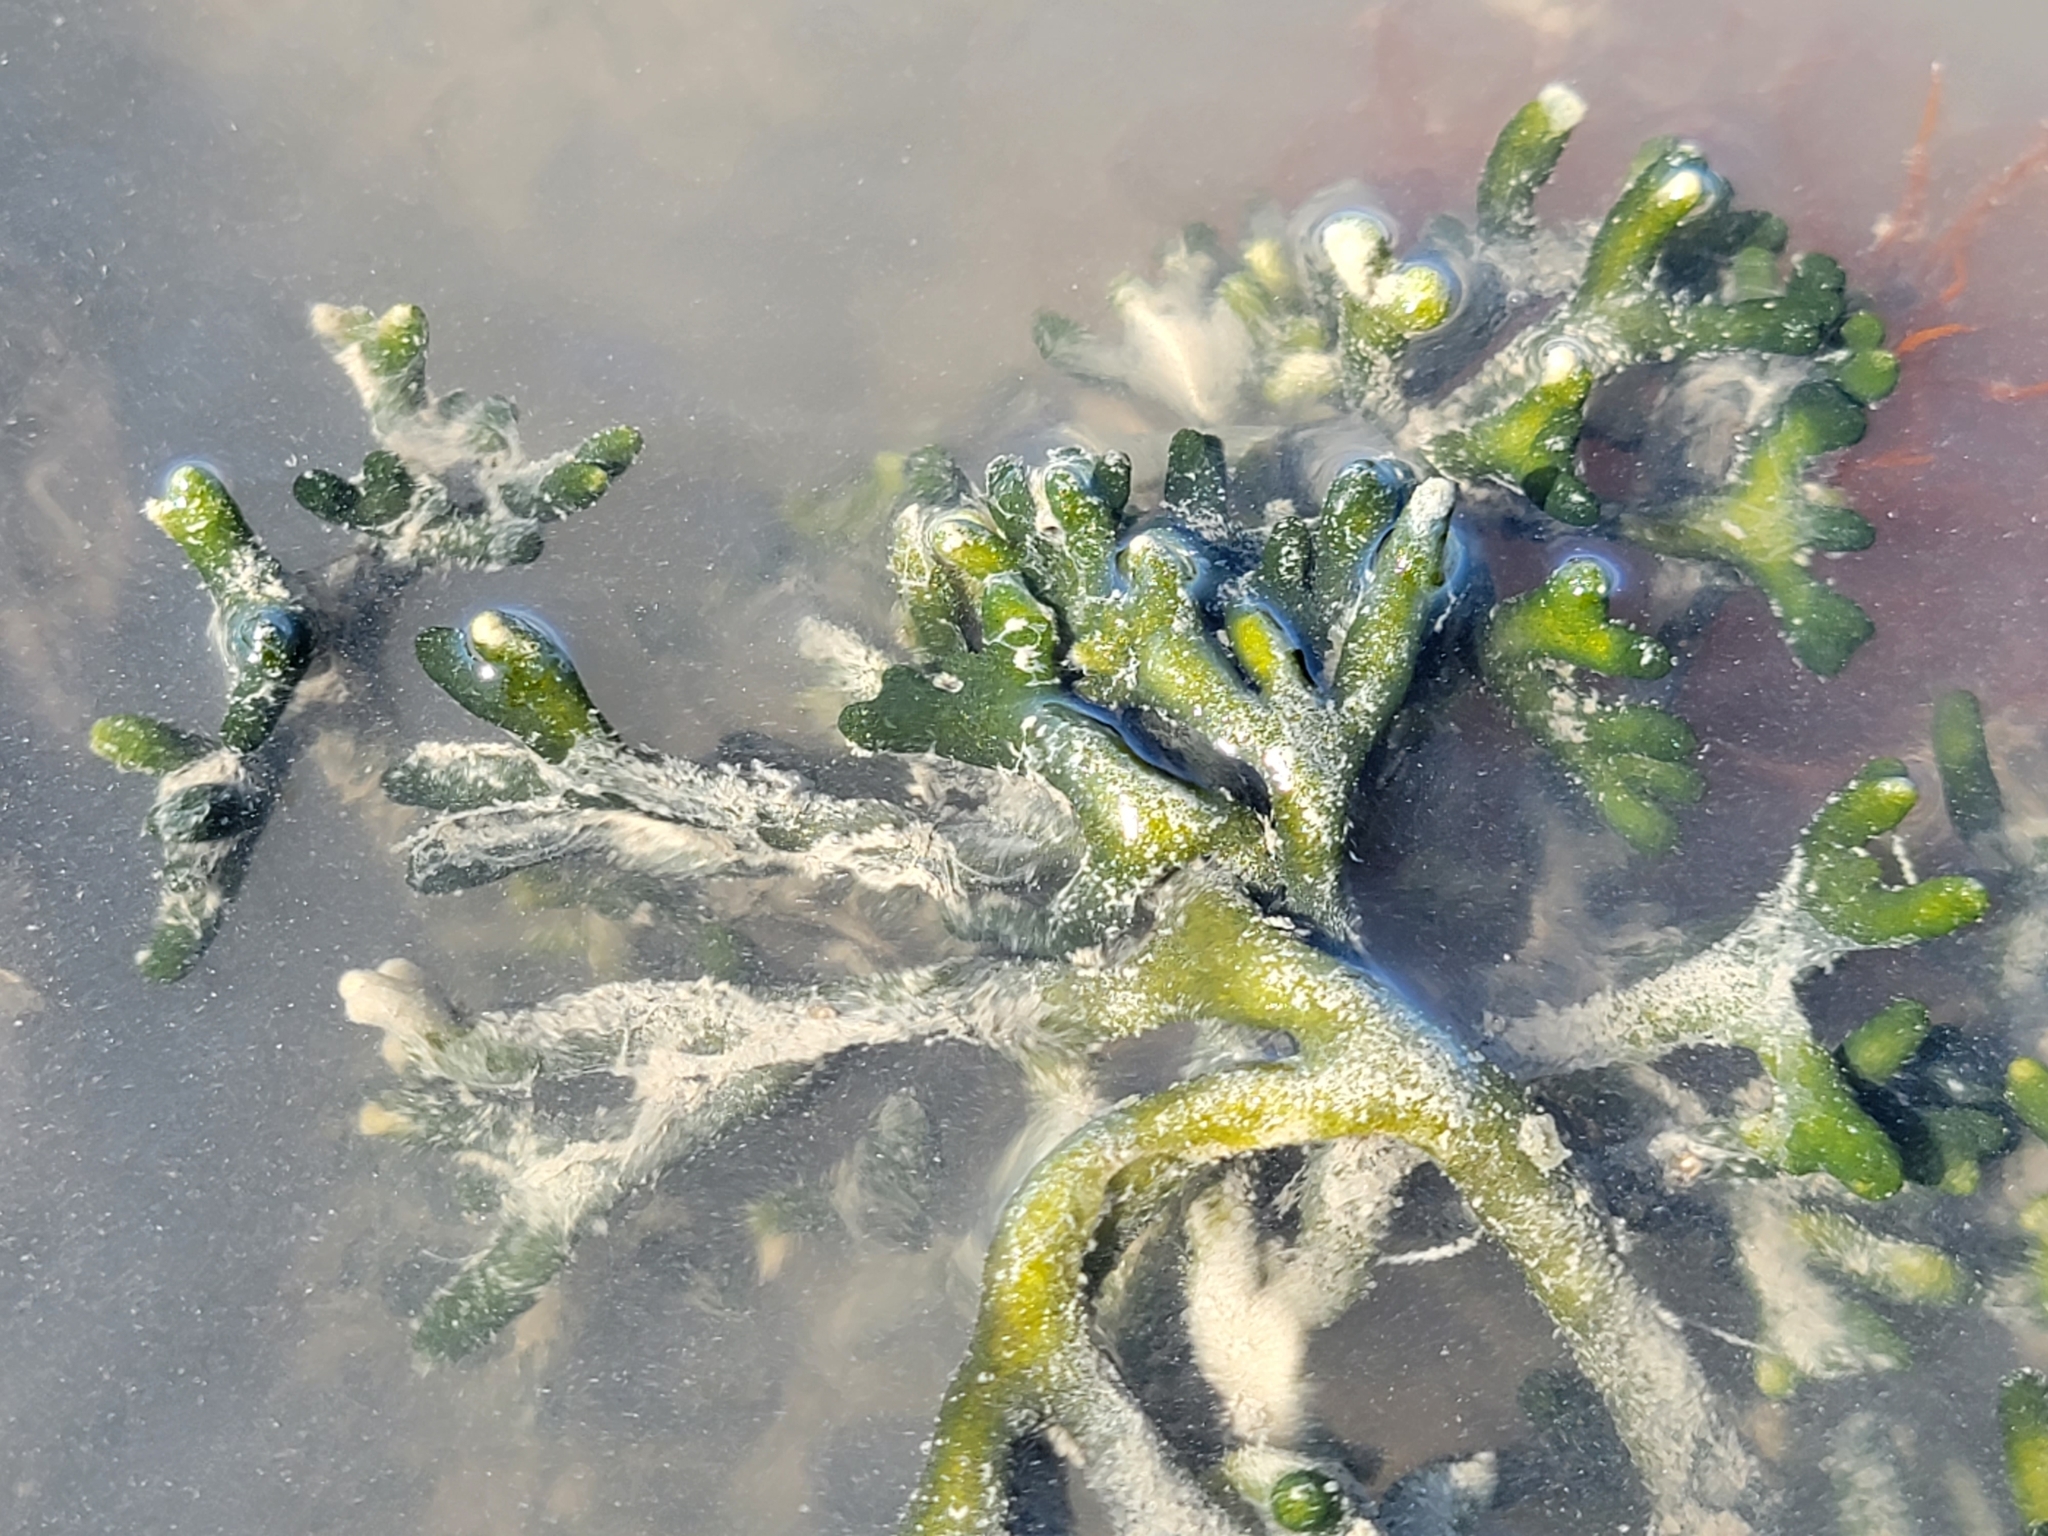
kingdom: Plantae
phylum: Chlorophyta
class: Ulvophyceae
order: Bryopsidales
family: Codiaceae
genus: Codium
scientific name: Codium fragile
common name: Dead man's fingers
